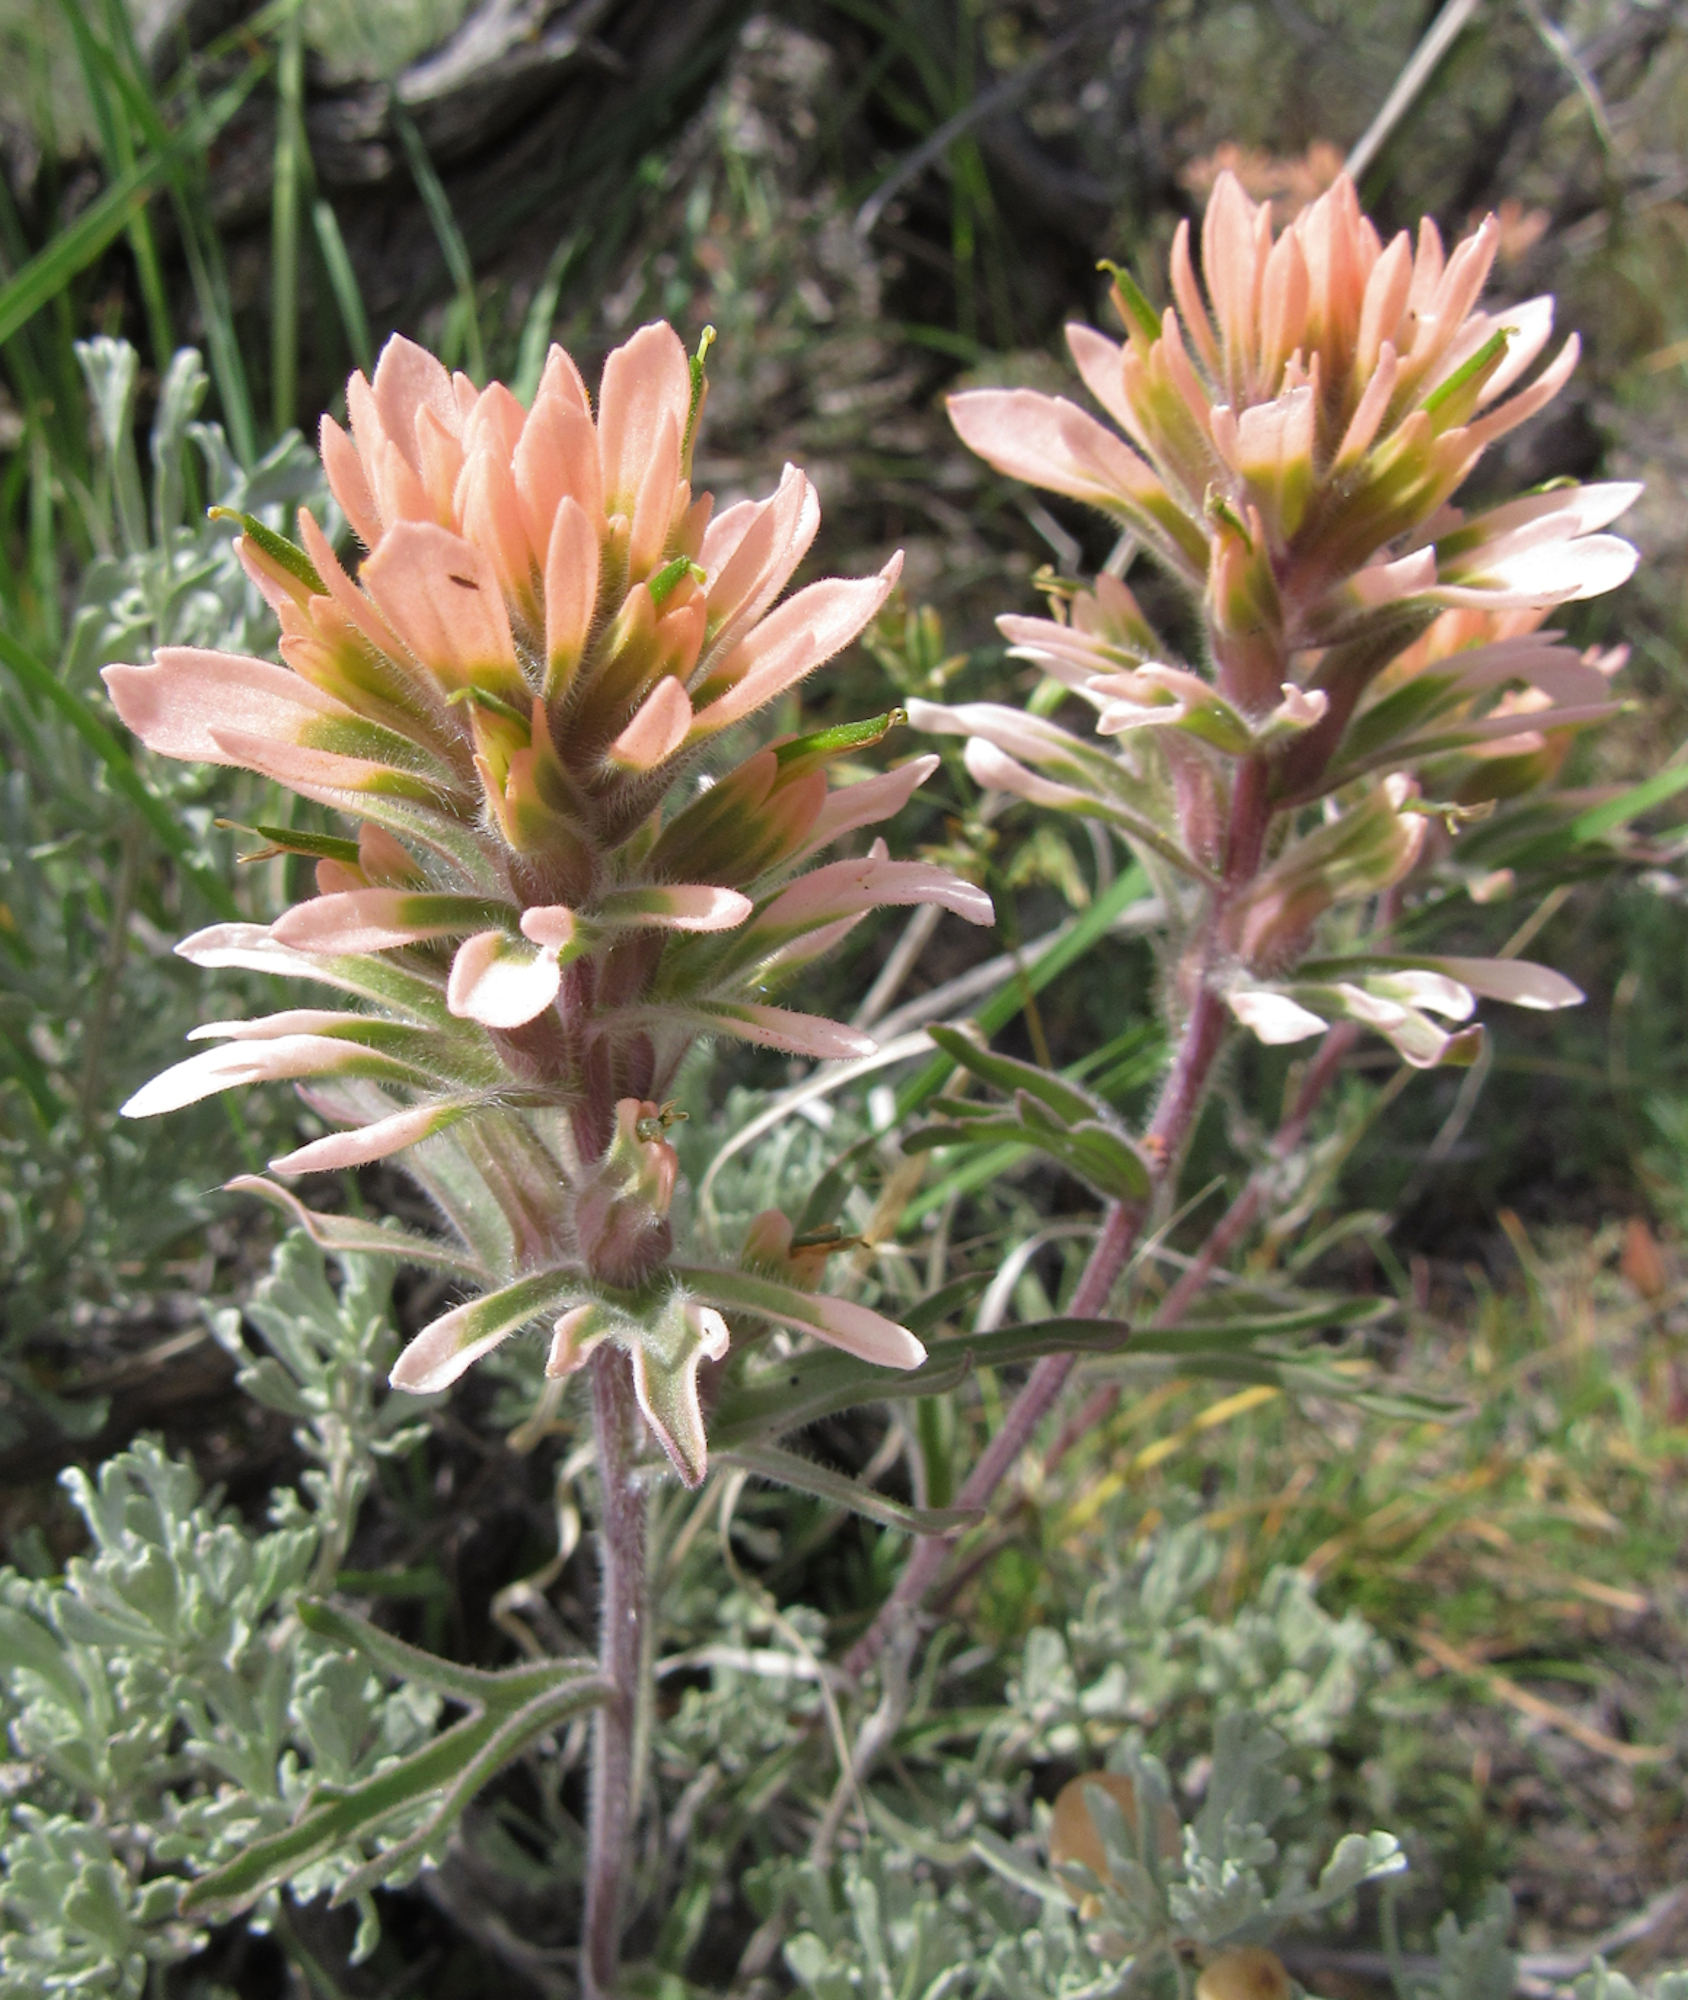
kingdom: Plantae
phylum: Tracheophyta
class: Magnoliopsida
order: Lamiales
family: Orobanchaceae
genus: Castilleja
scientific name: Castilleja angustifolia
